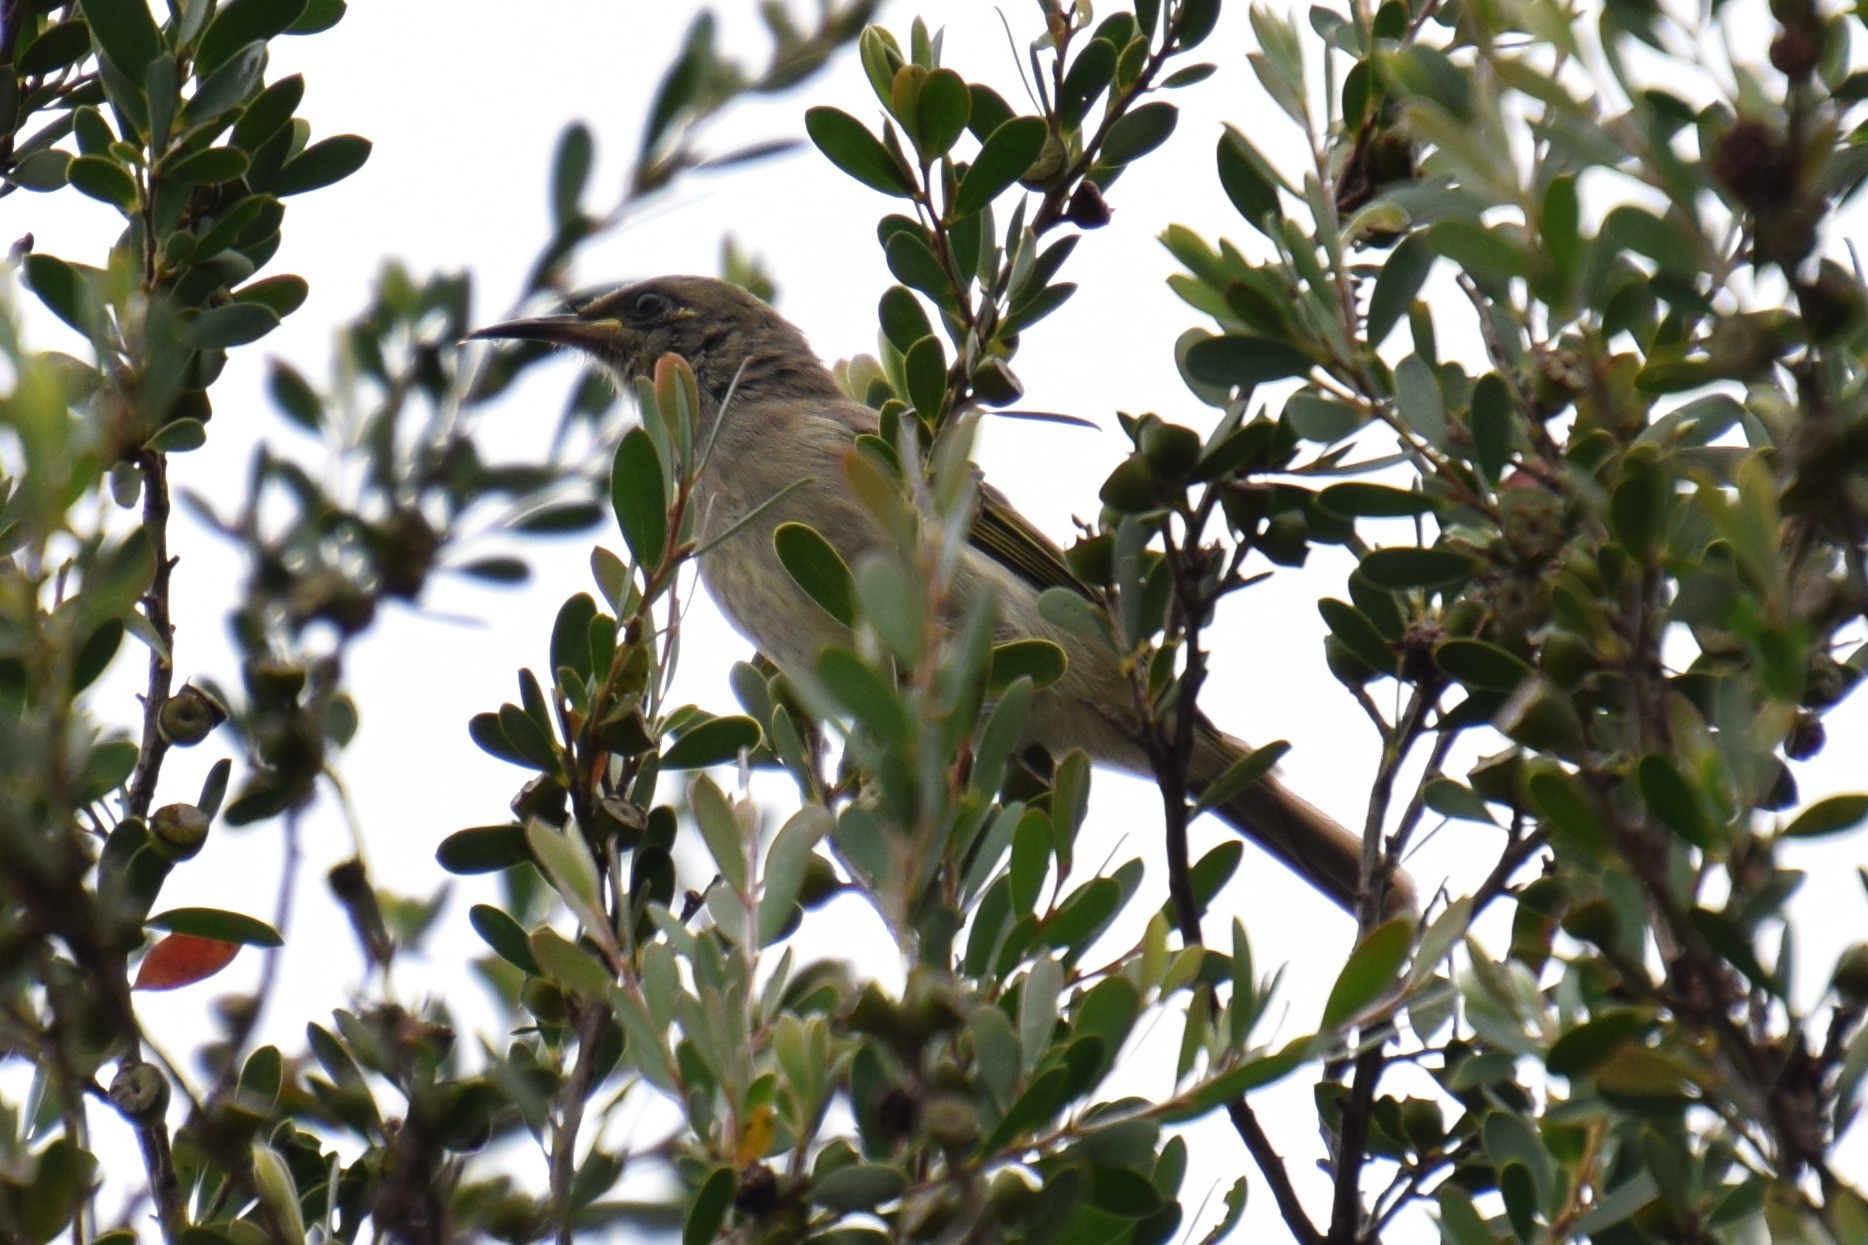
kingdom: Animalia
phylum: Chordata
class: Aves
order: Passeriformes
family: Meliphagidae
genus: Lichmera
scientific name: Lichmera indistincta
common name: Brown honeyeater
